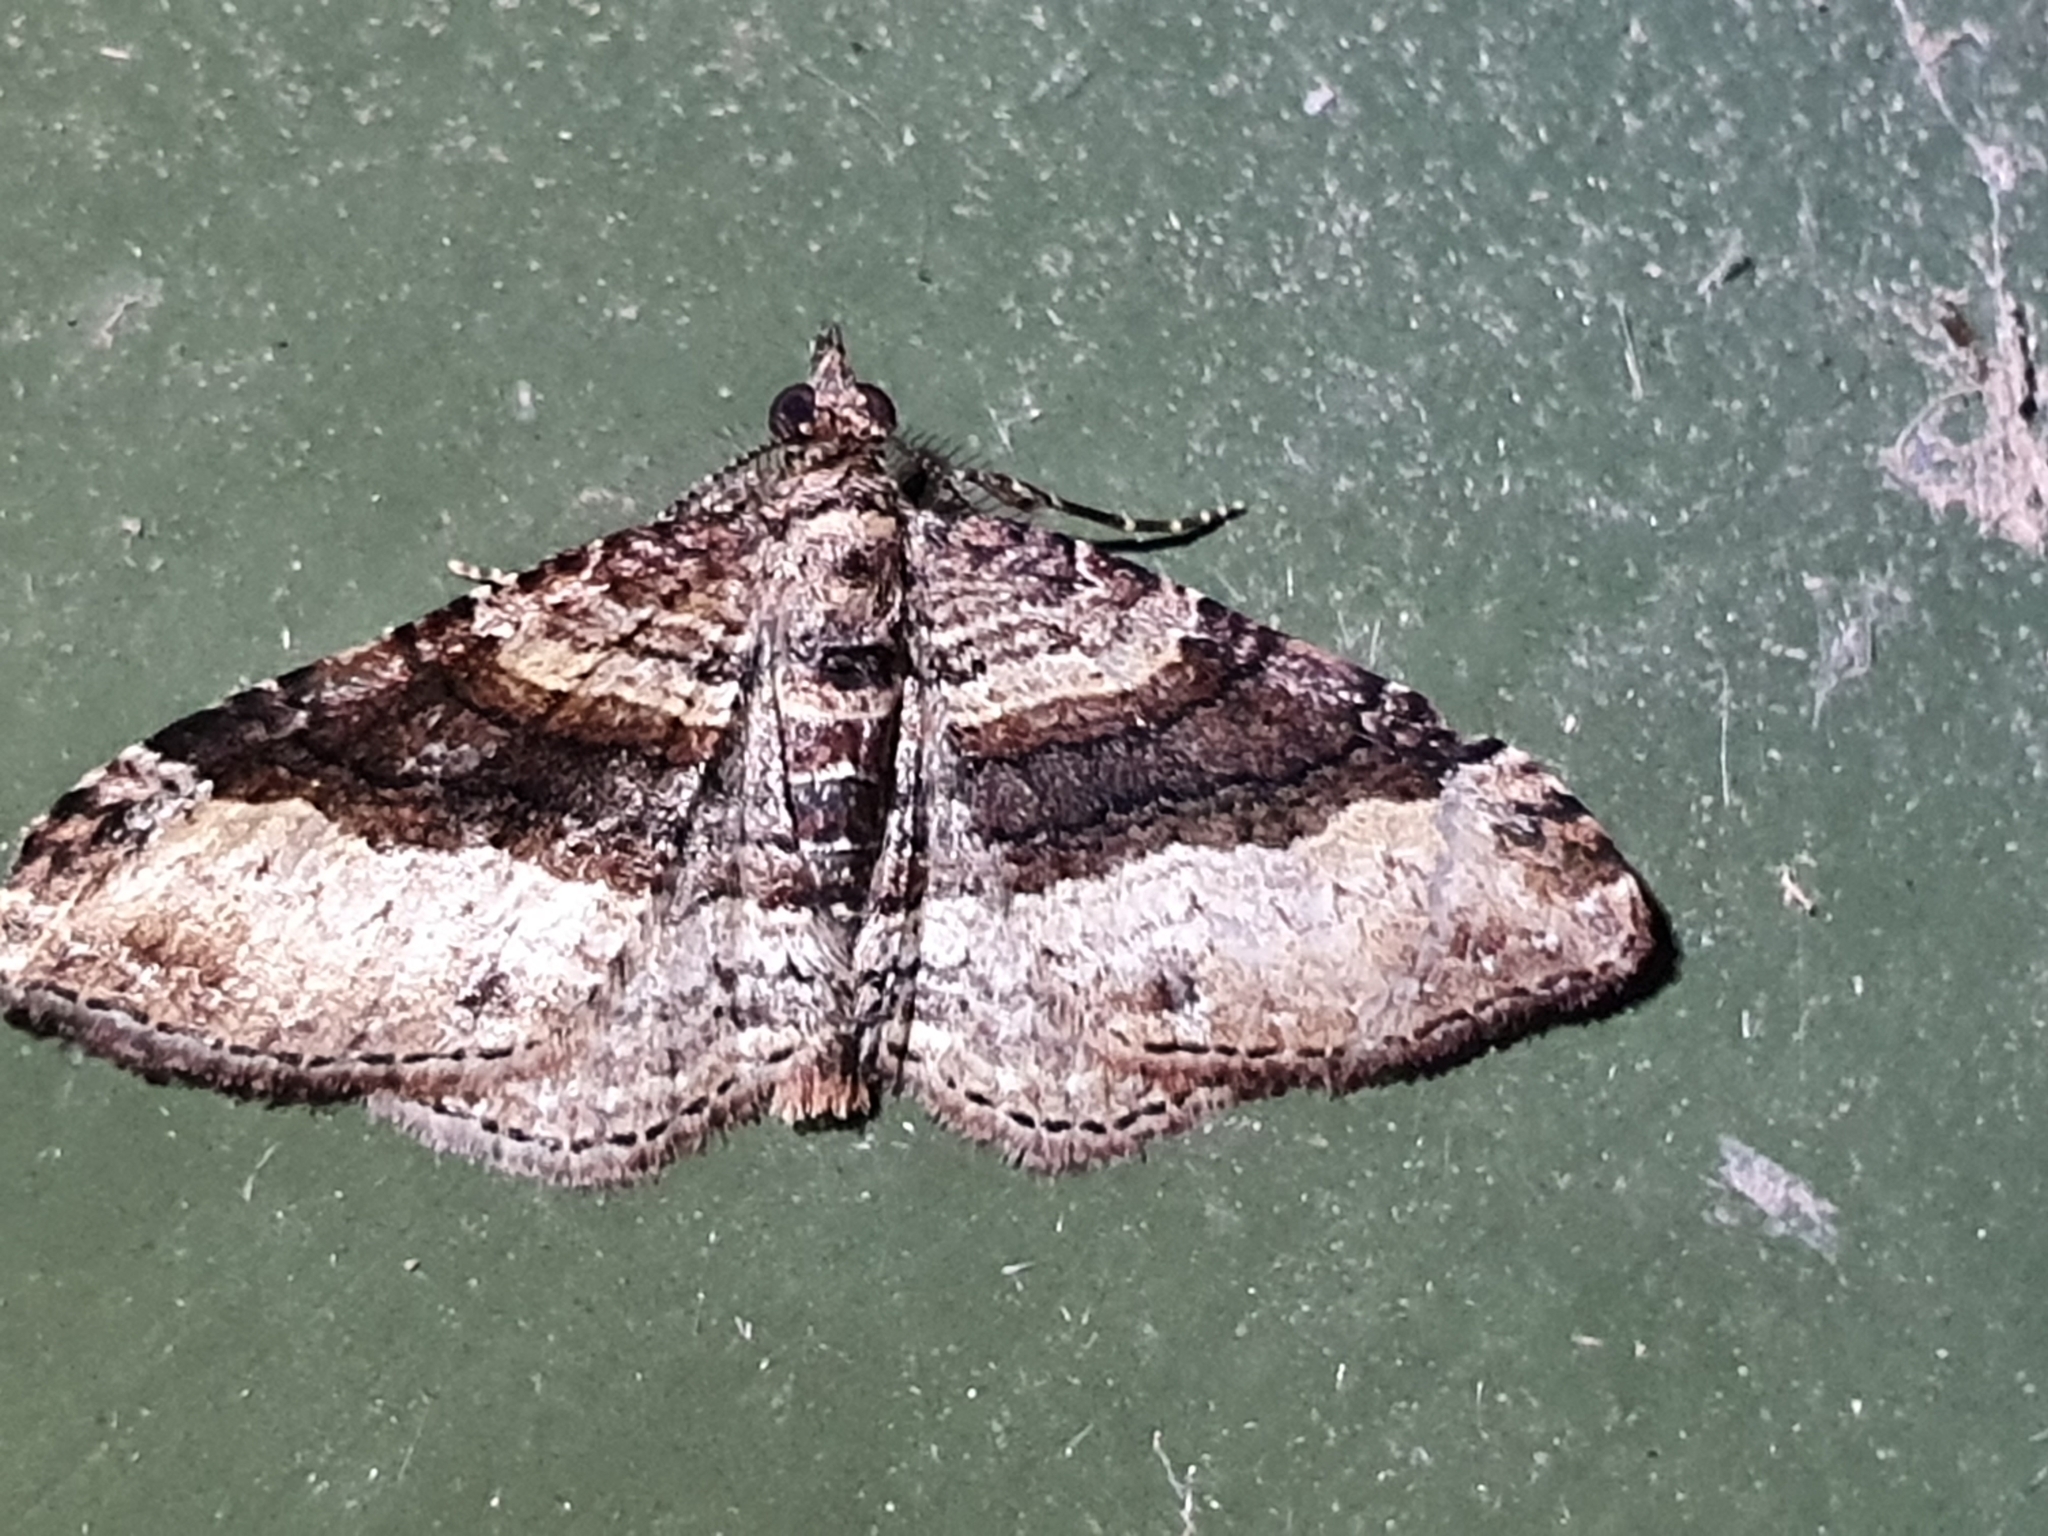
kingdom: Animalia
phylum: Arthropoda
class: Insecta
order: Lepidoptera
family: Geometridae
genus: Epyaxa
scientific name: Epyaxa lucidata
